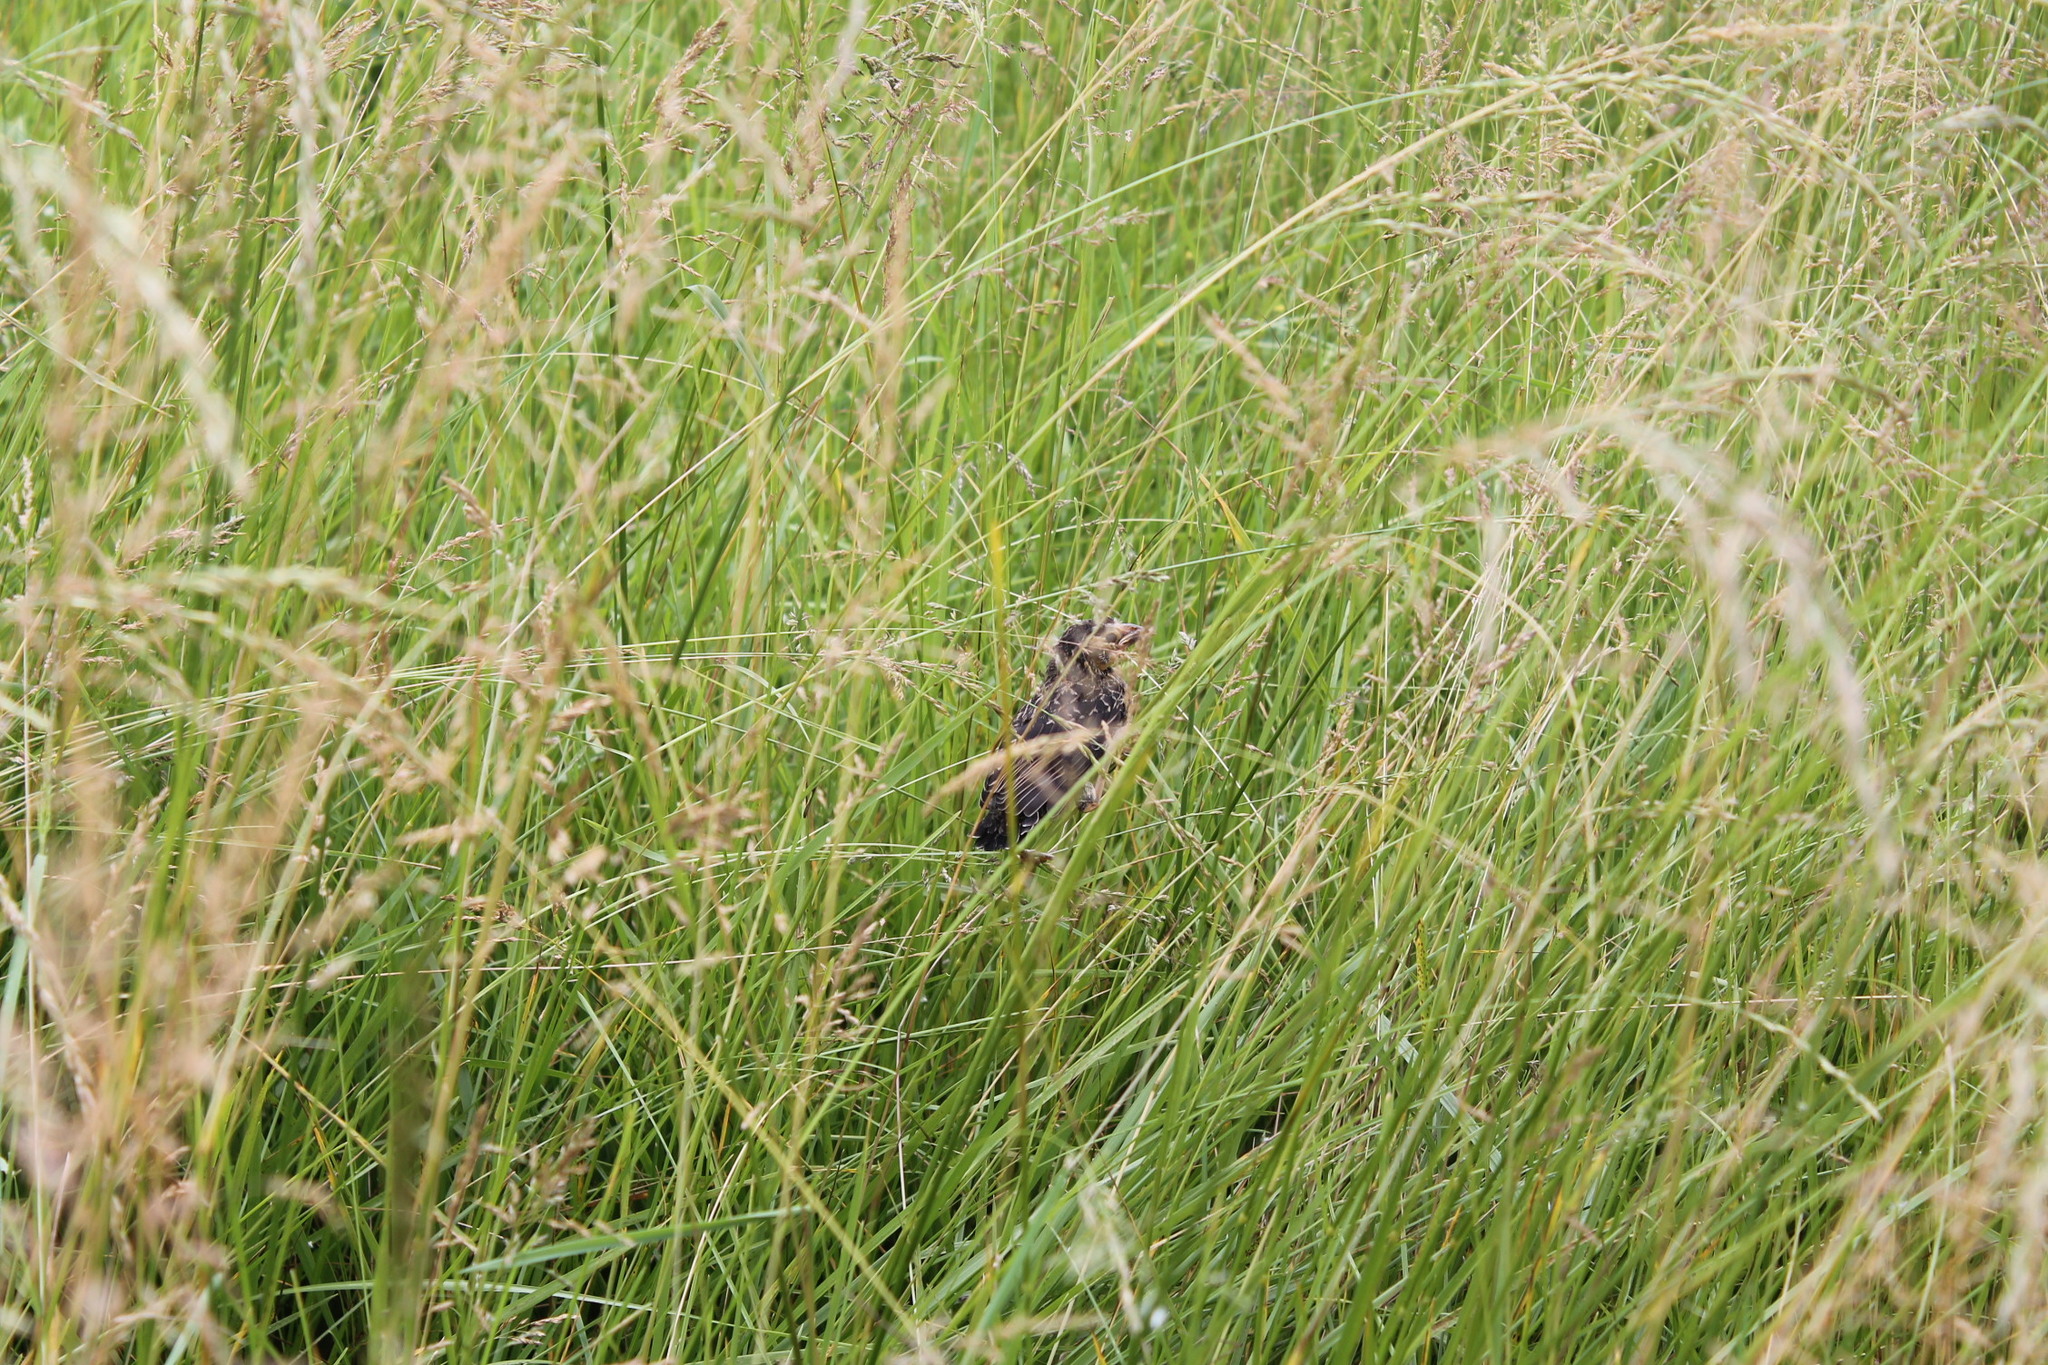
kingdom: Animalia
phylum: Chordata
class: Aves
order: Passeriformes
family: Icteridae
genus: Agelaius
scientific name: Agelaius phoeniceus
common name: Red-winged blackbird
